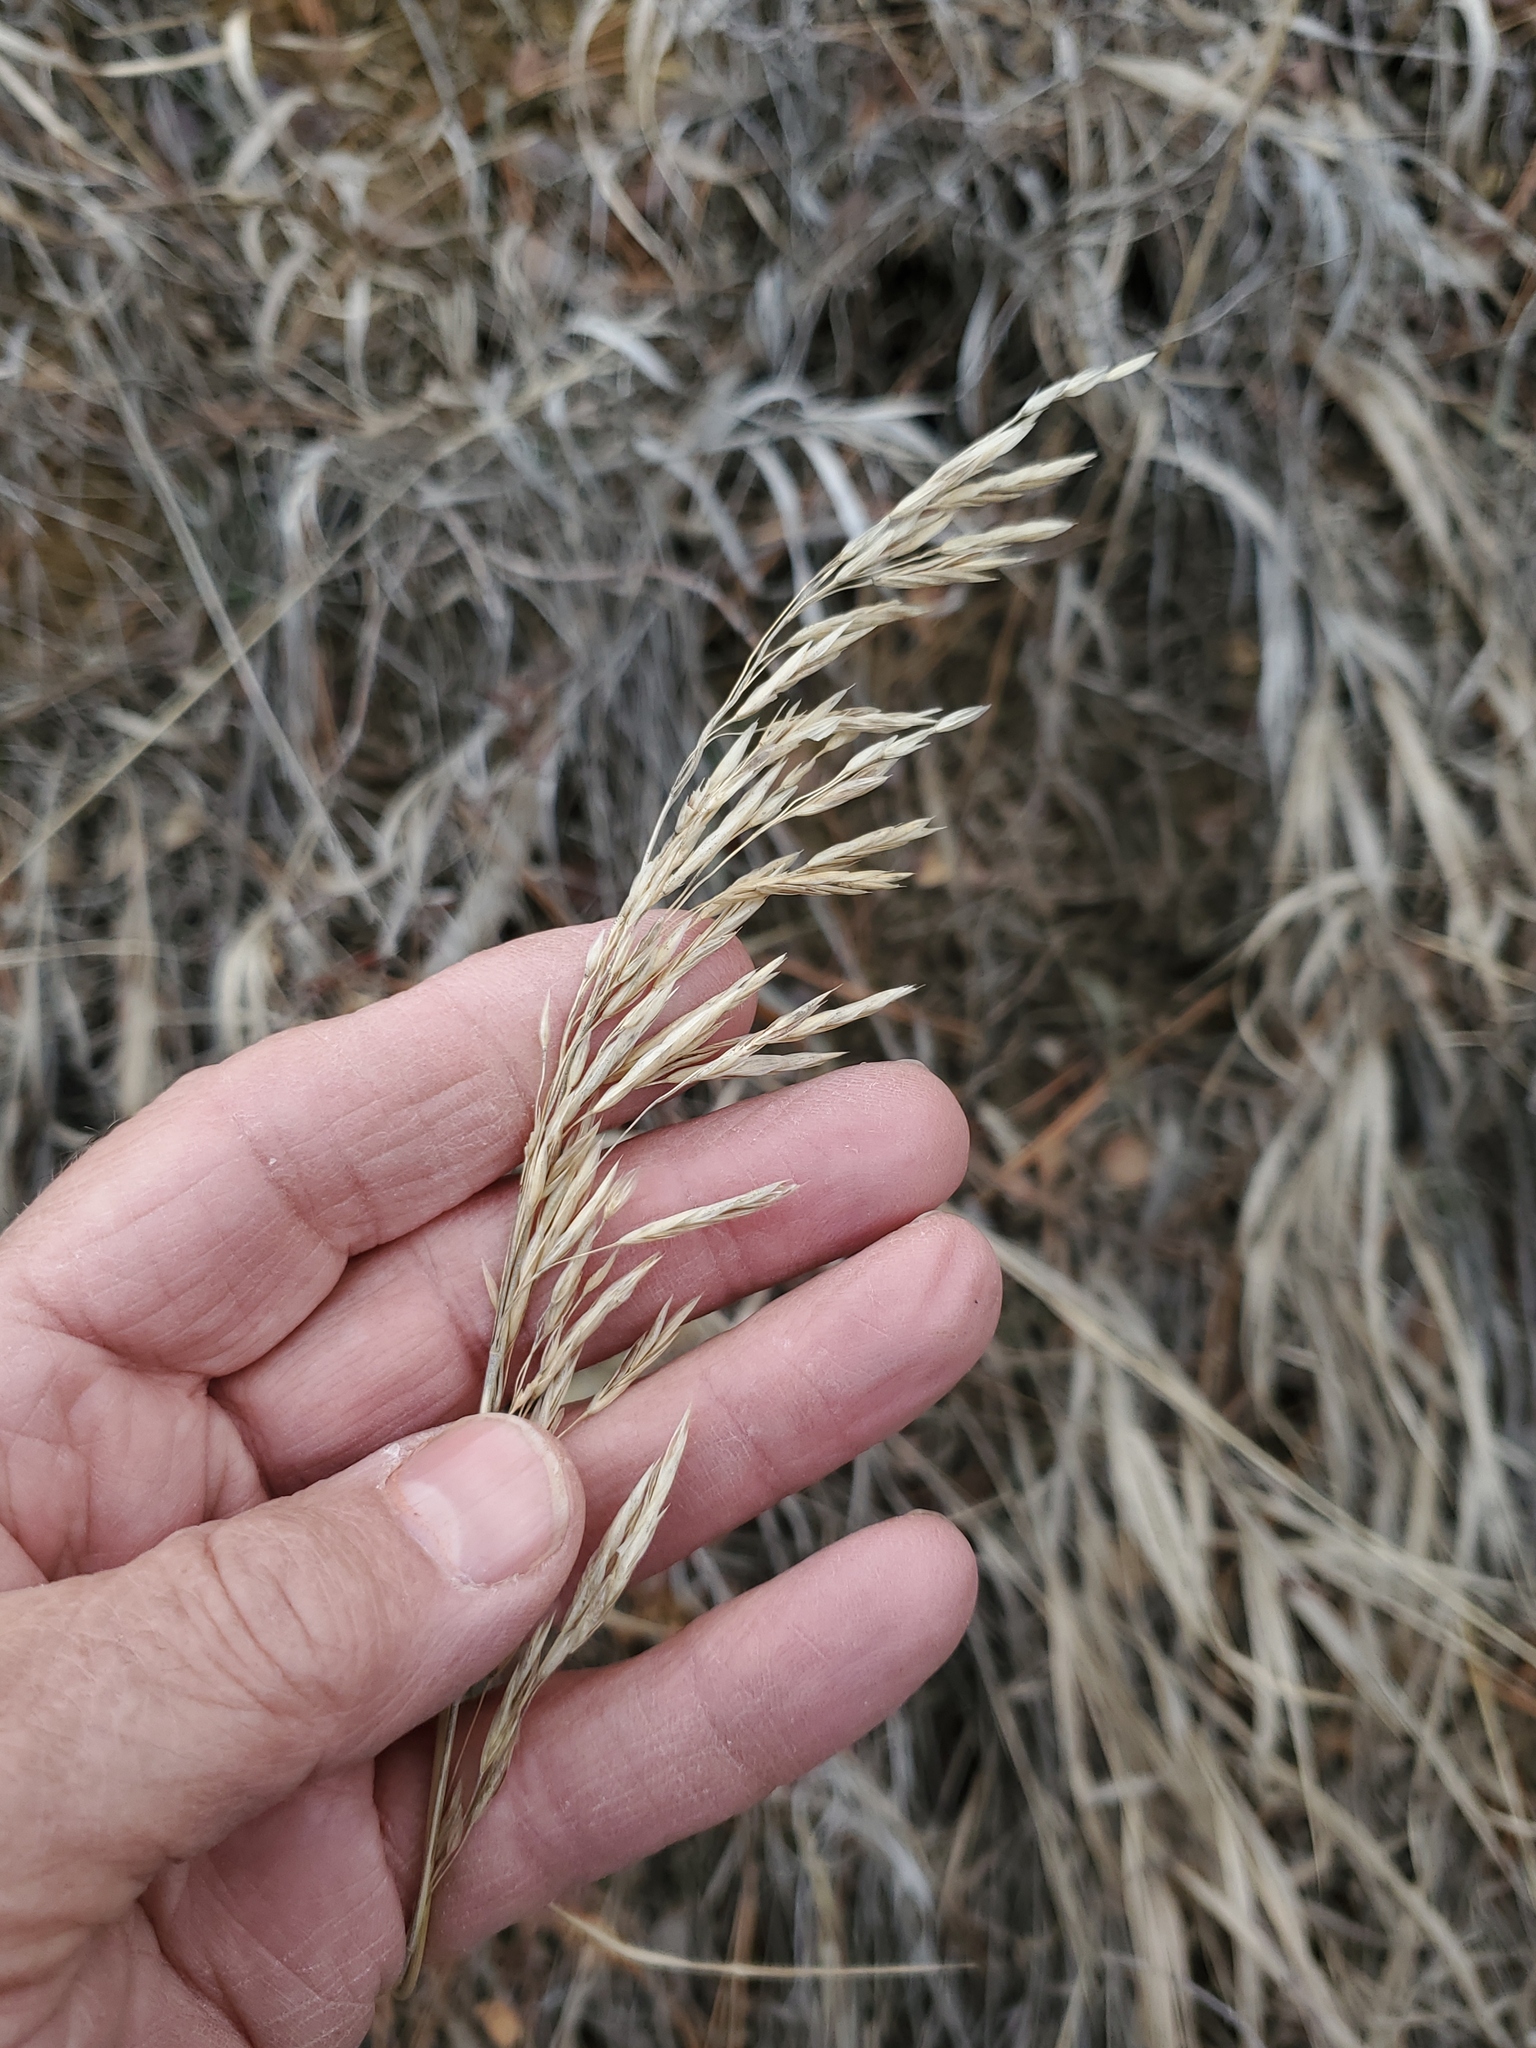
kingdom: Plantae
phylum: Tracheophyta
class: Liliopsida
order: Poales
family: Poaceae
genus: Bromus
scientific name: Bromus inermis
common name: Smooth brome
